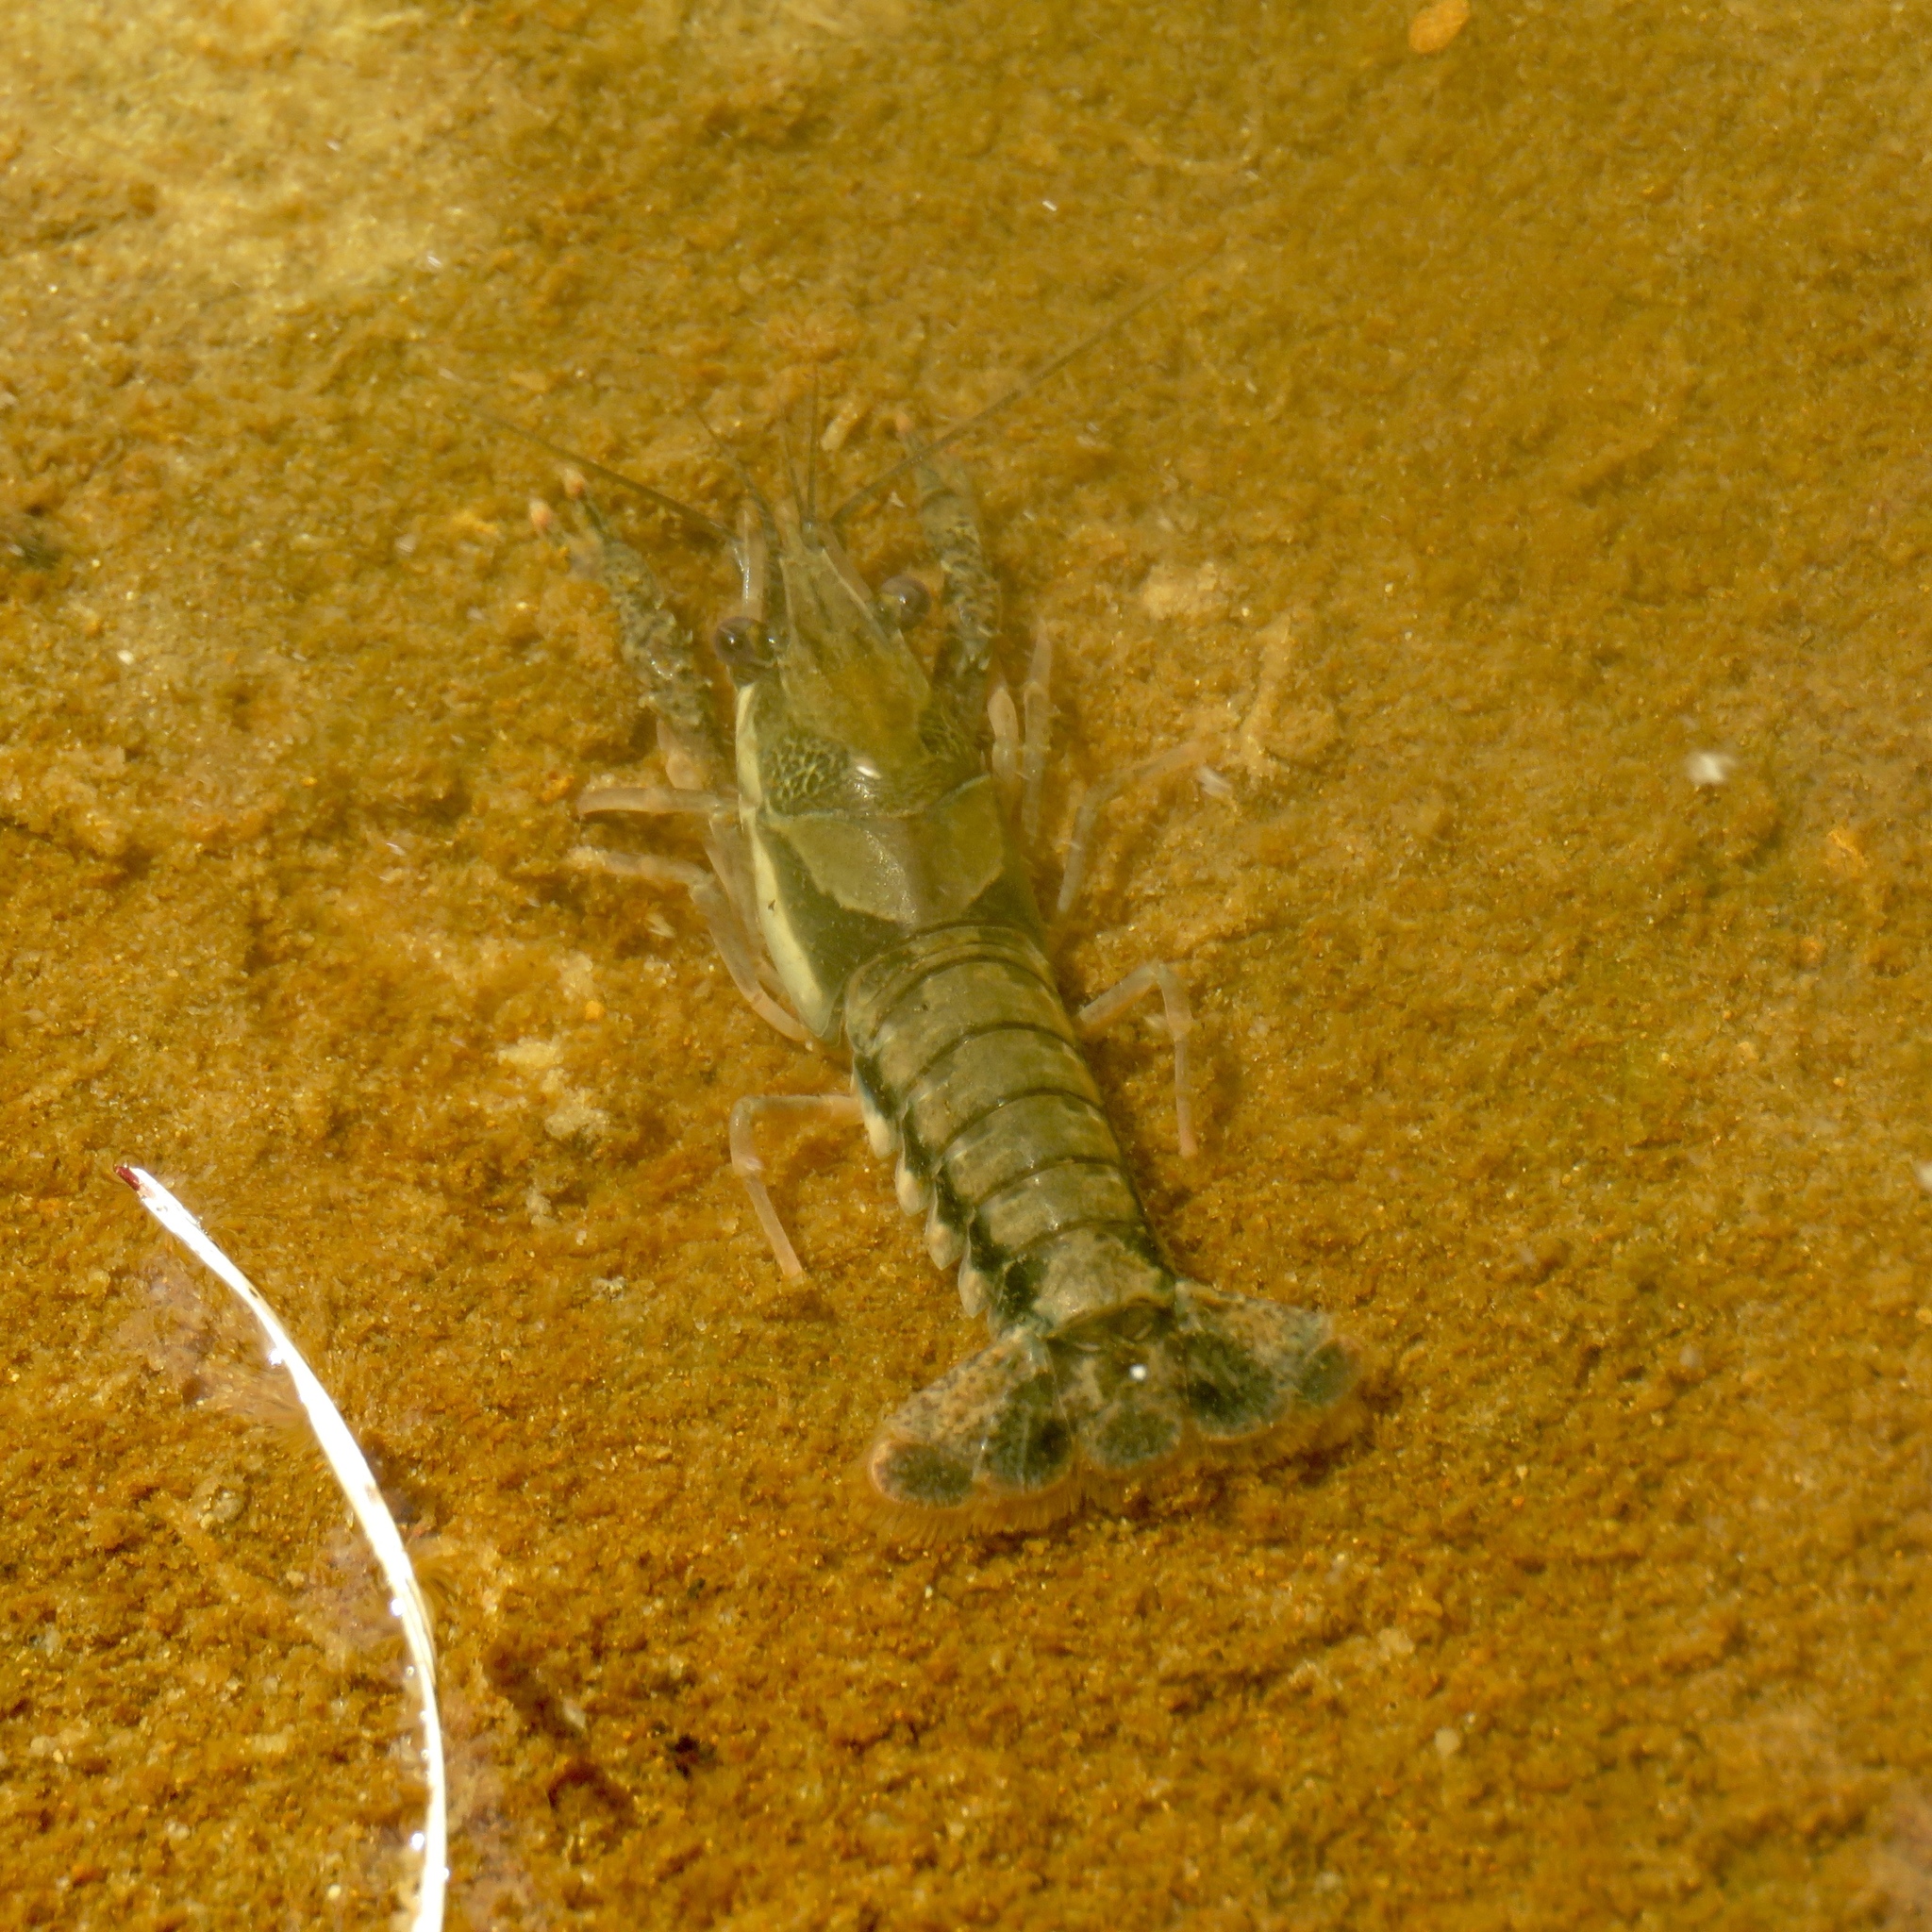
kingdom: Animalia
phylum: Arthropoda
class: Malacostraca
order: Decapoda
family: Cambaridae
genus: Procambarus
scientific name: Procambarus dupratzi
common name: Southwestern creek crayfish
